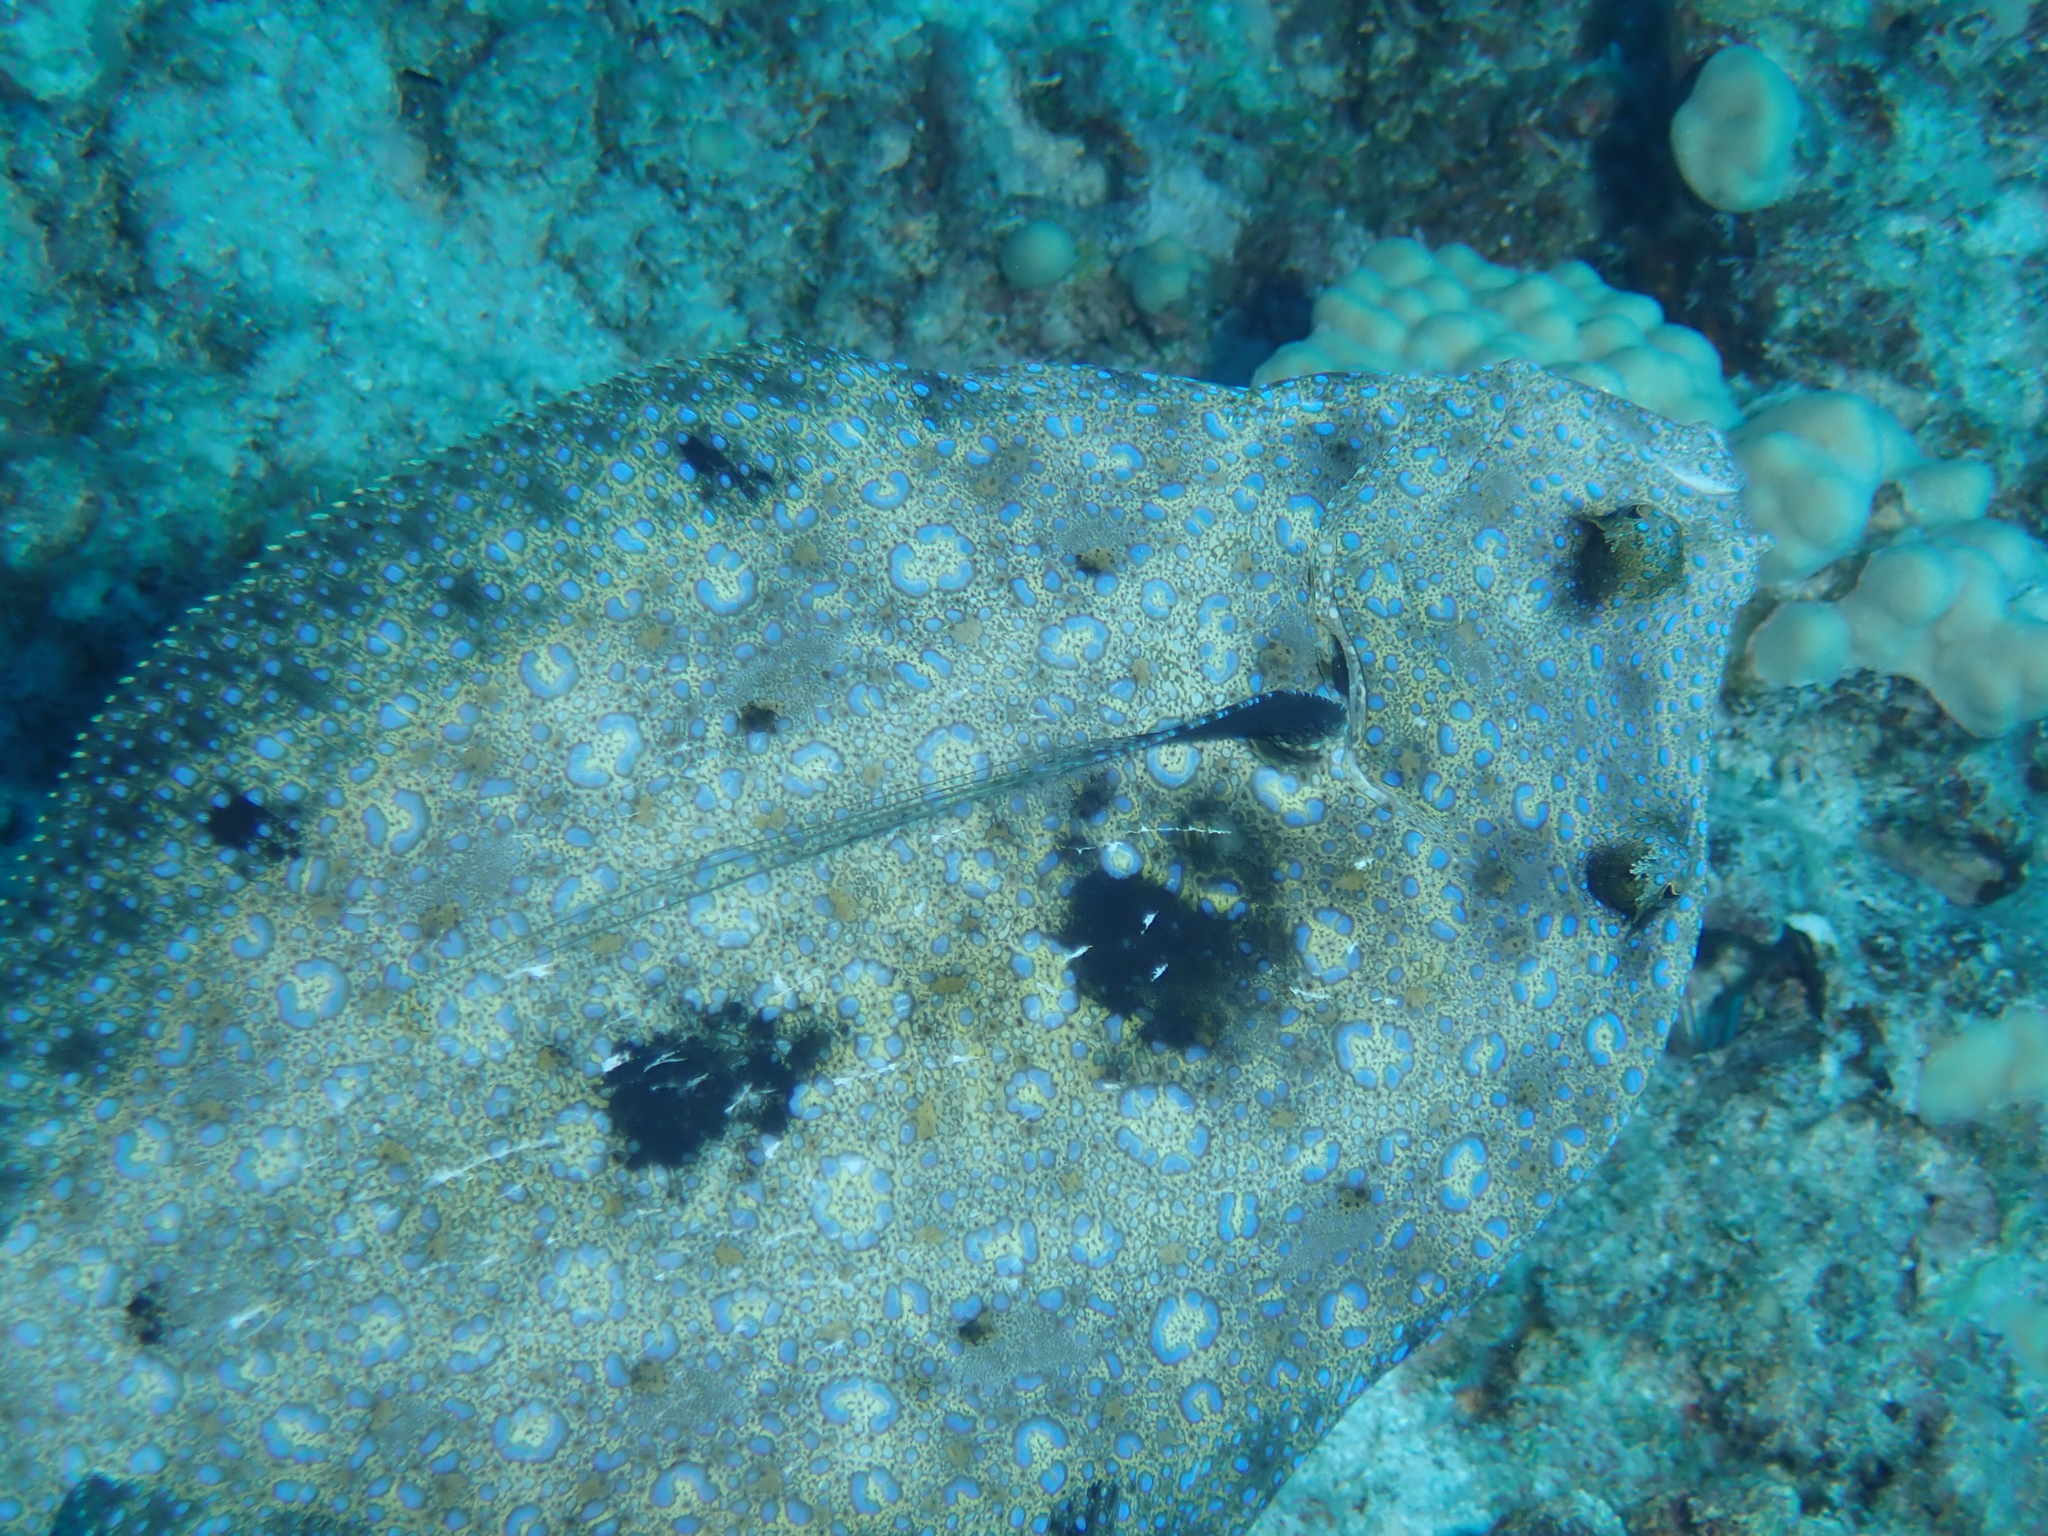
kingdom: Animalia
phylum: Chordata
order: Pleuronectiformes
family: Bothidae
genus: Bothus
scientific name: Bothus mancus
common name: Flowery flounder
